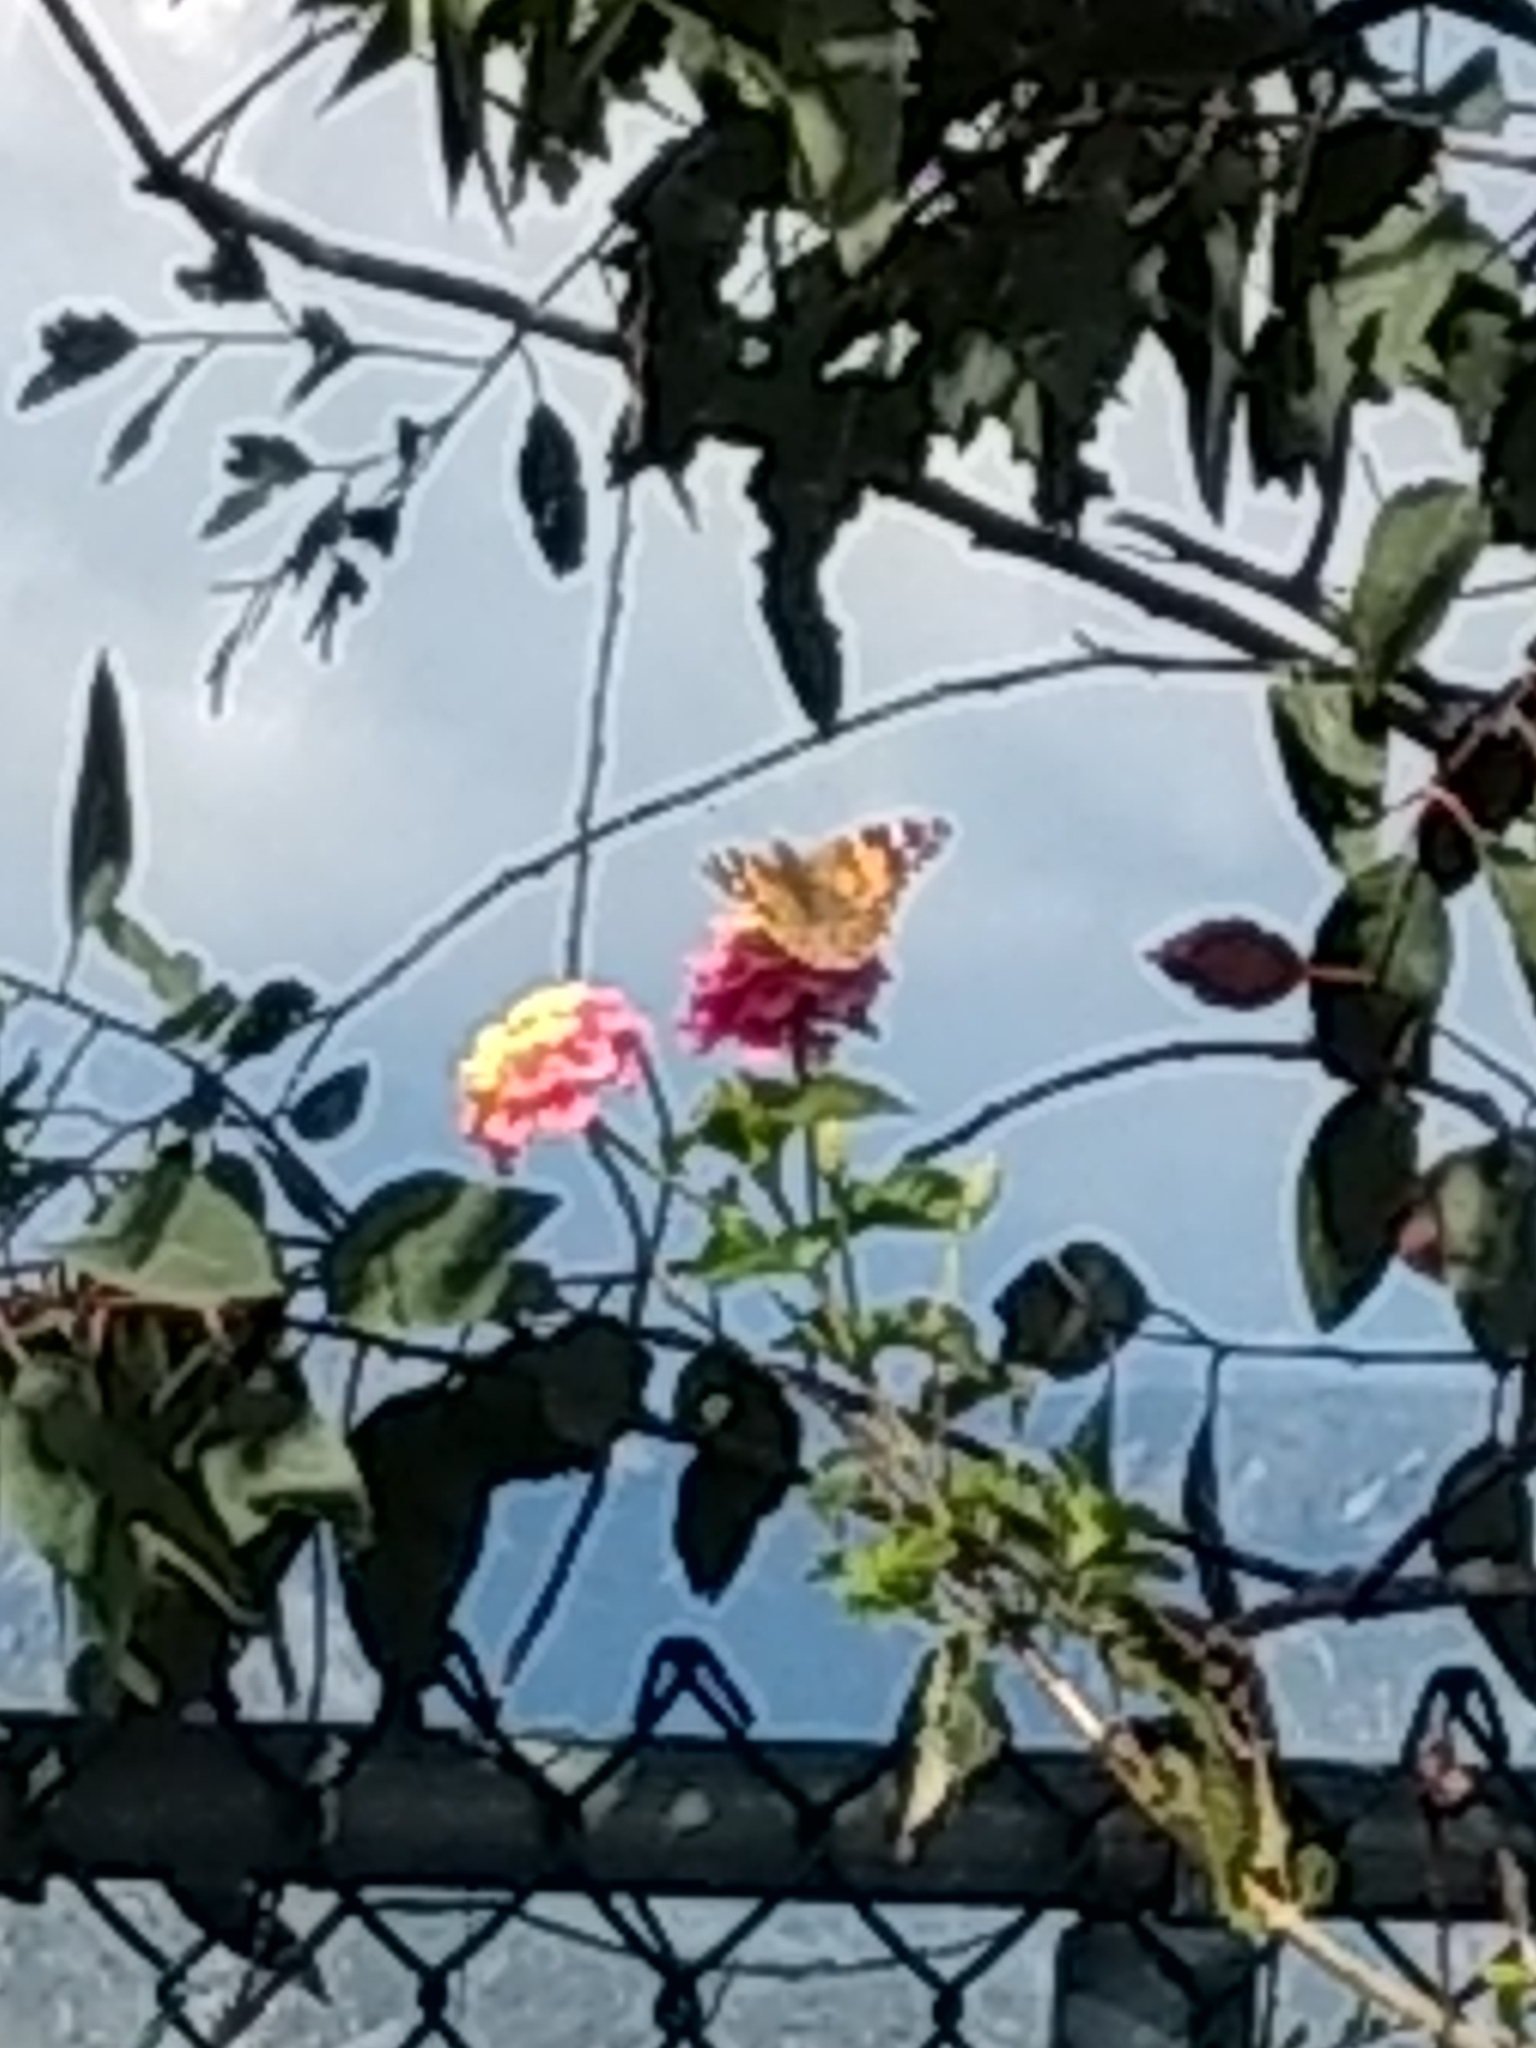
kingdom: Animalia
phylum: Arthropoda
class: Insecta
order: Lepidoptera
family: Nymphalidae
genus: Vanessa
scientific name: Vanessa cardui
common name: Painted lady
